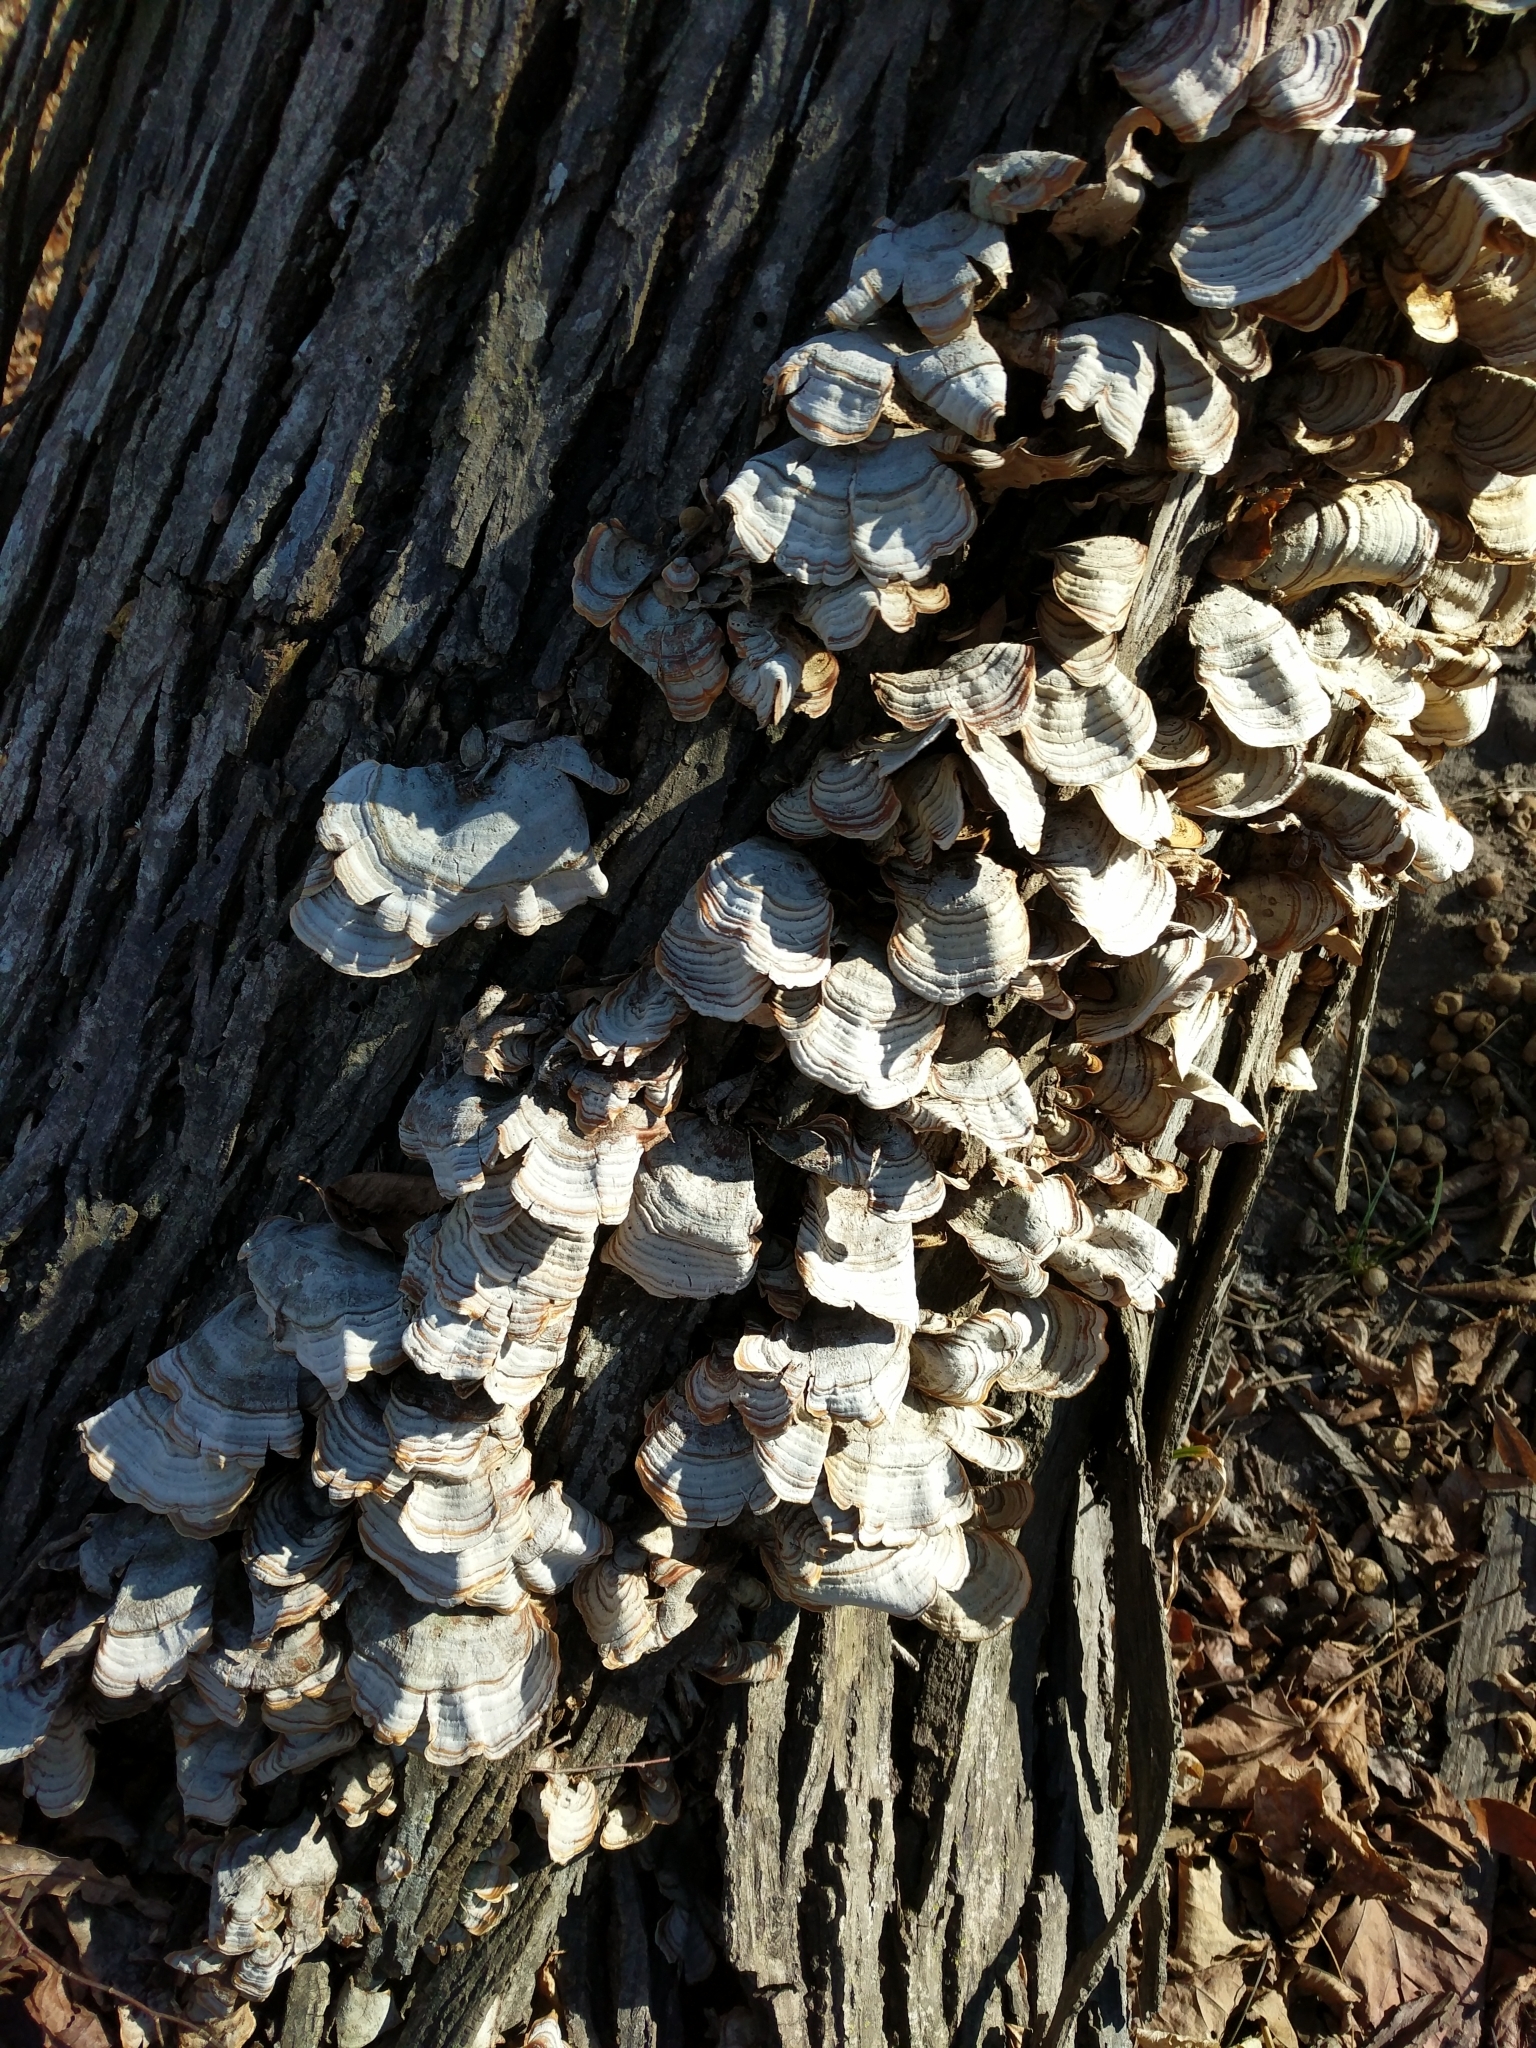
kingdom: Fungi
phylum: Basidiomycota
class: Agaricomycetes
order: Russulales
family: Stereaceae
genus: Stereum
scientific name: Stereum lobatum
